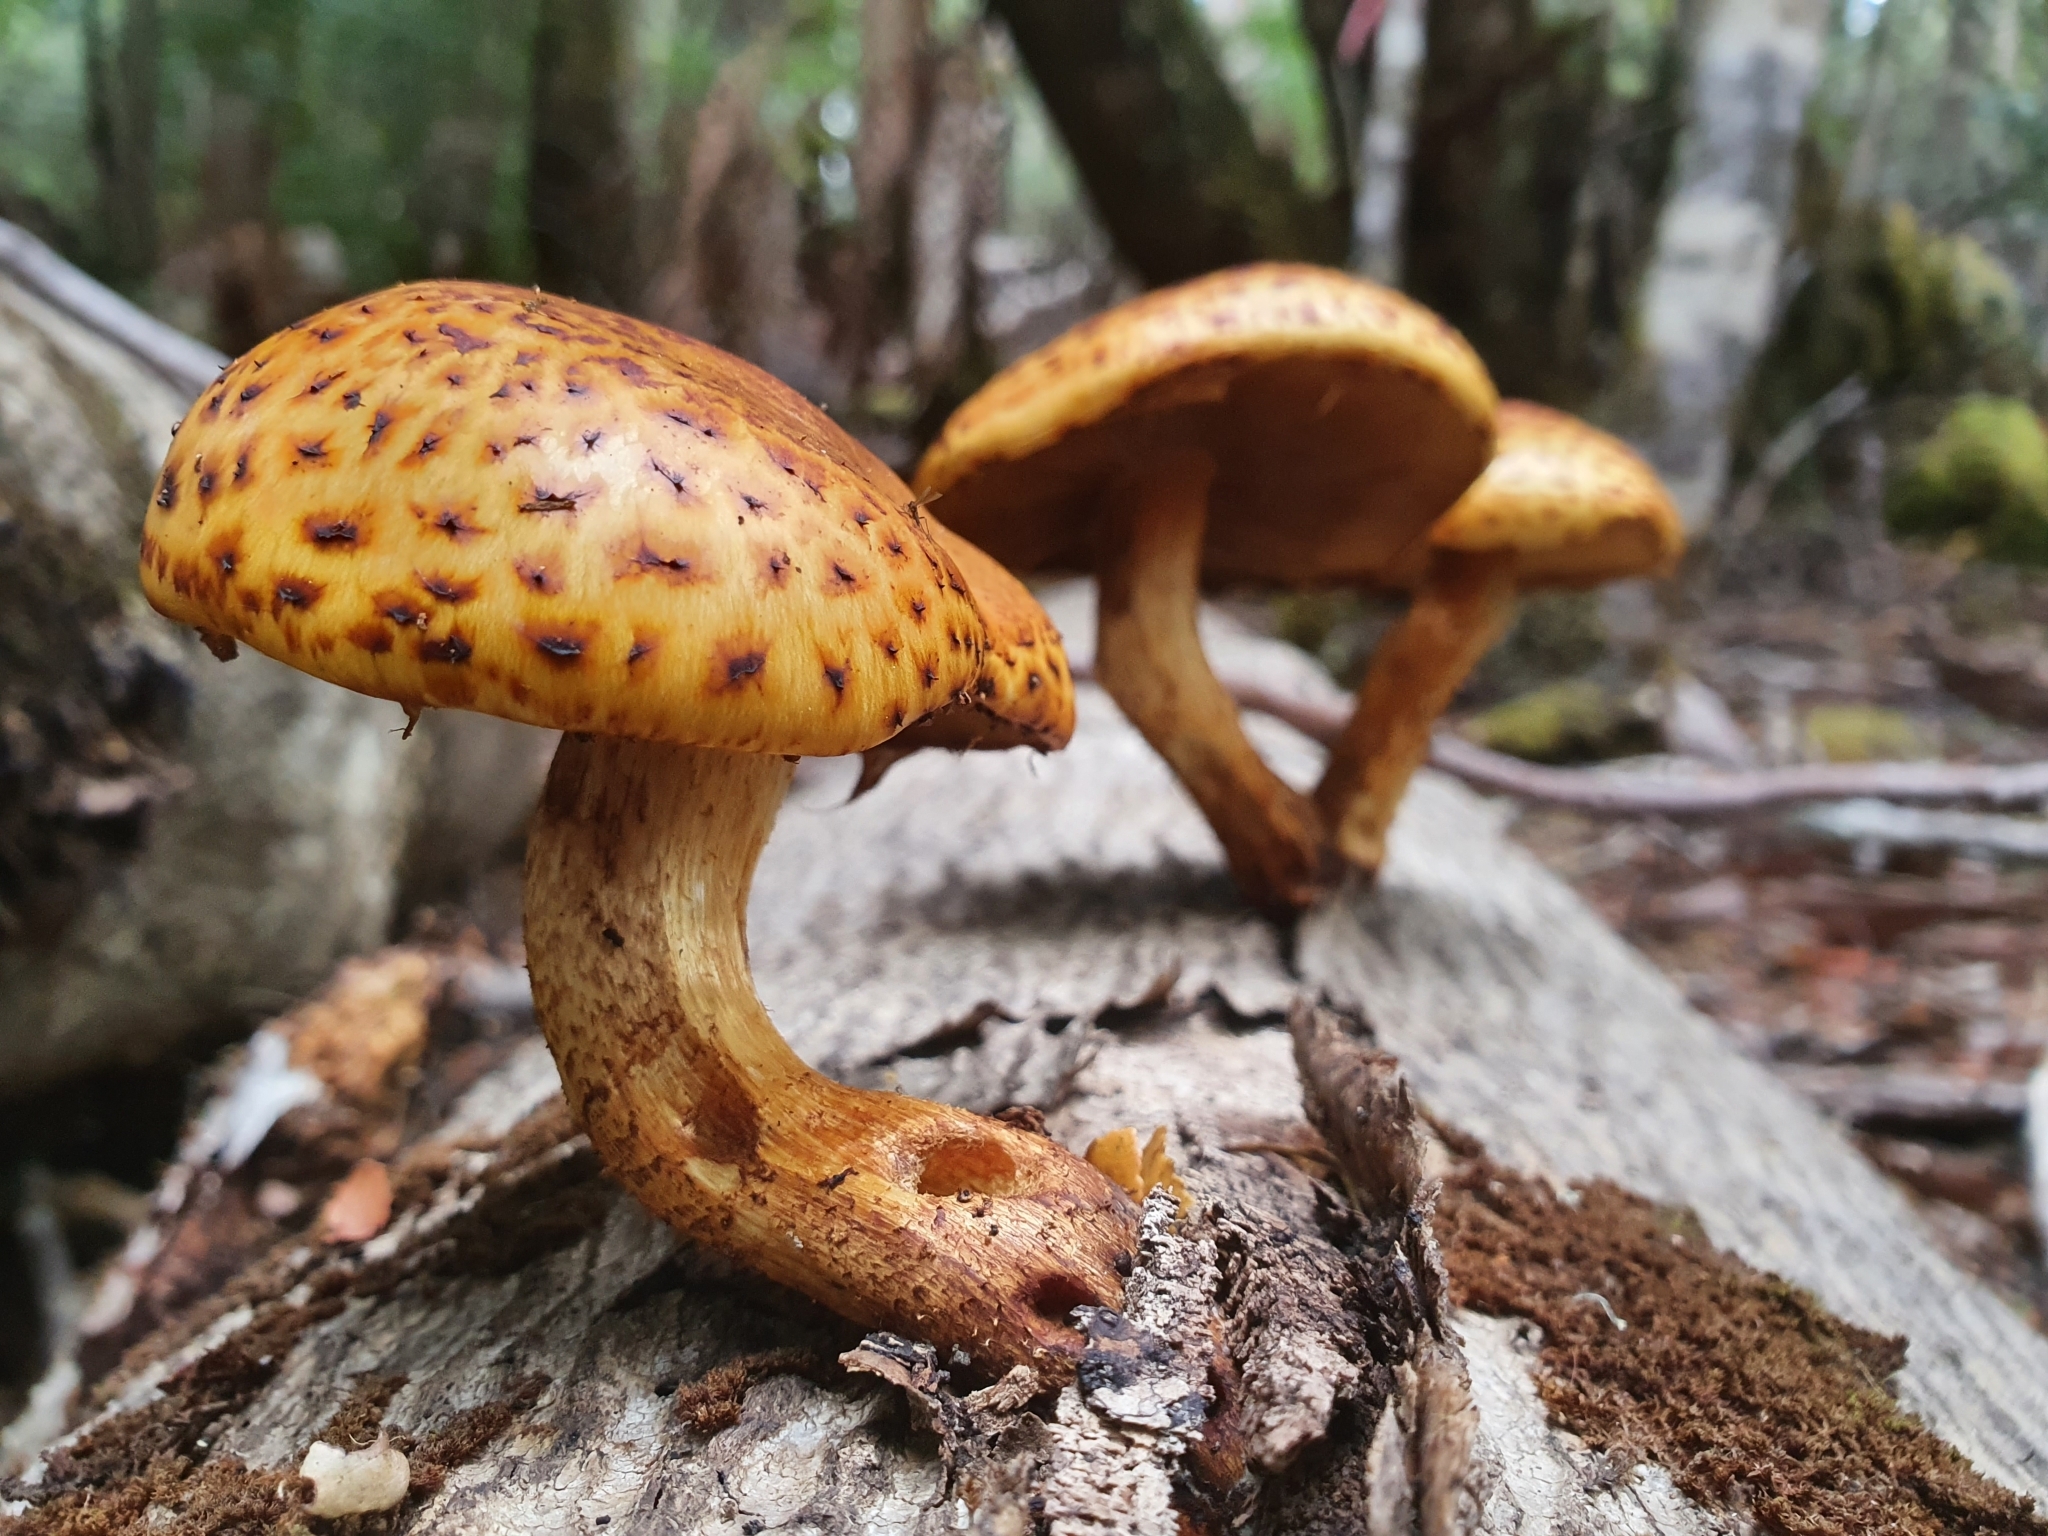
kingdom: Fungi
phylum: Basidiomycota
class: Agaricomycetes
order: Agaricales
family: Strophariaceae
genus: Pholiota
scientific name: Pholiota aurivella
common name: Golden scalycap
